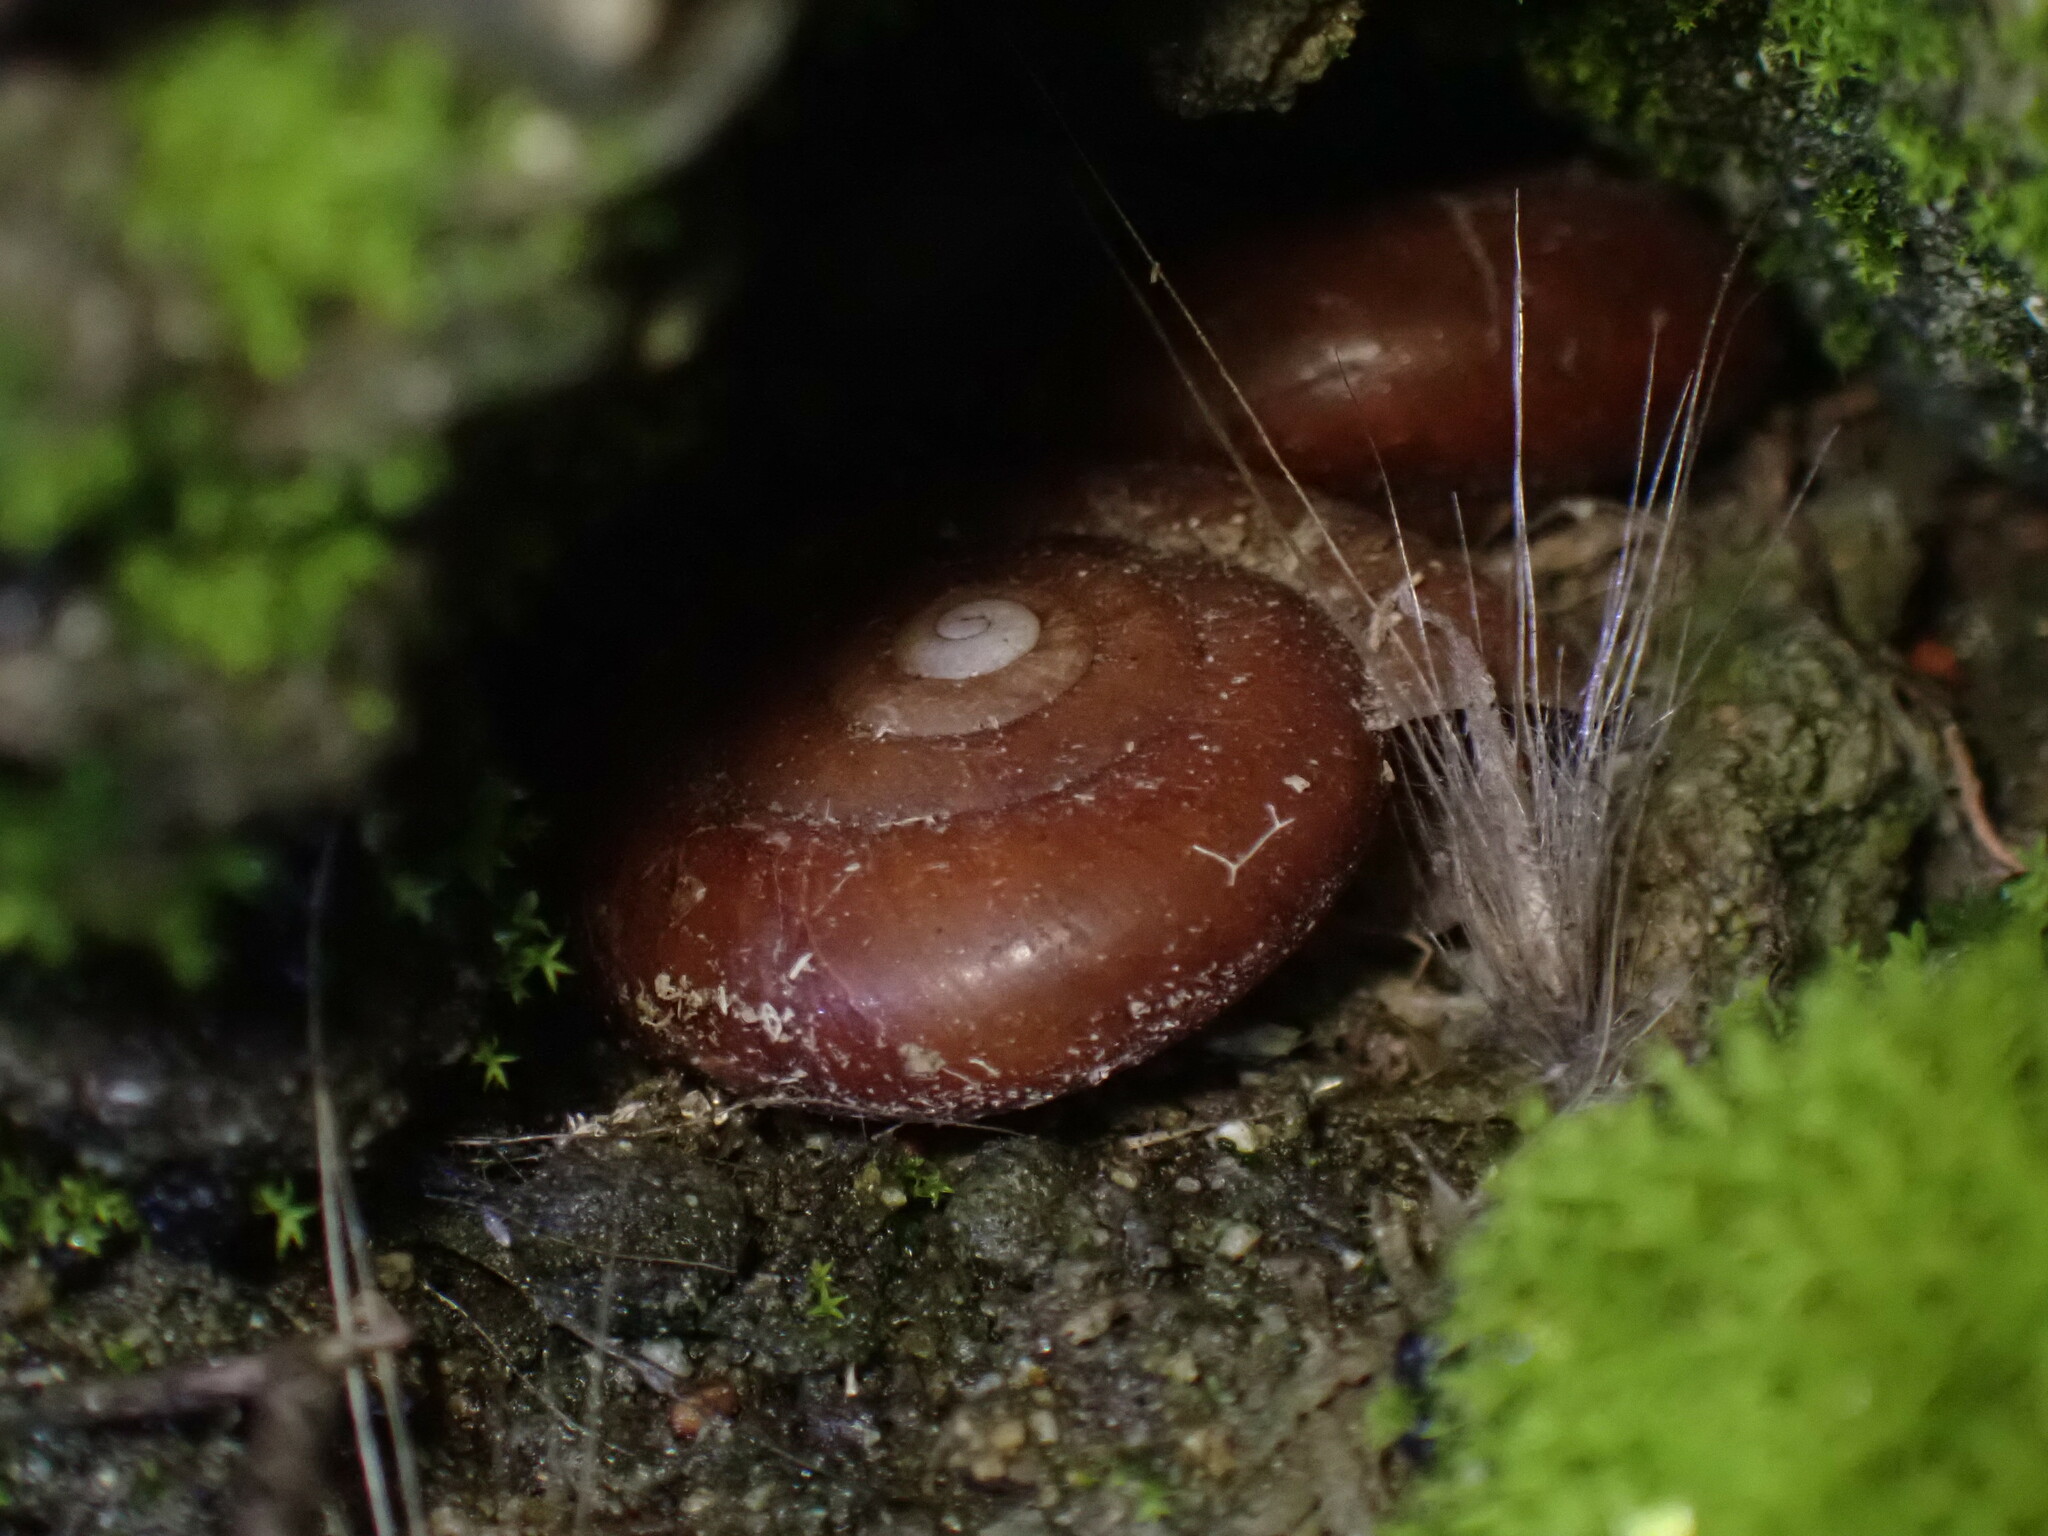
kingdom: Animalia
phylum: Mollusca
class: Gastropoda
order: Stylommatophora
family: Megomphicidae
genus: Glyptostoma
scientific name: Glyptostoma gabrielense
